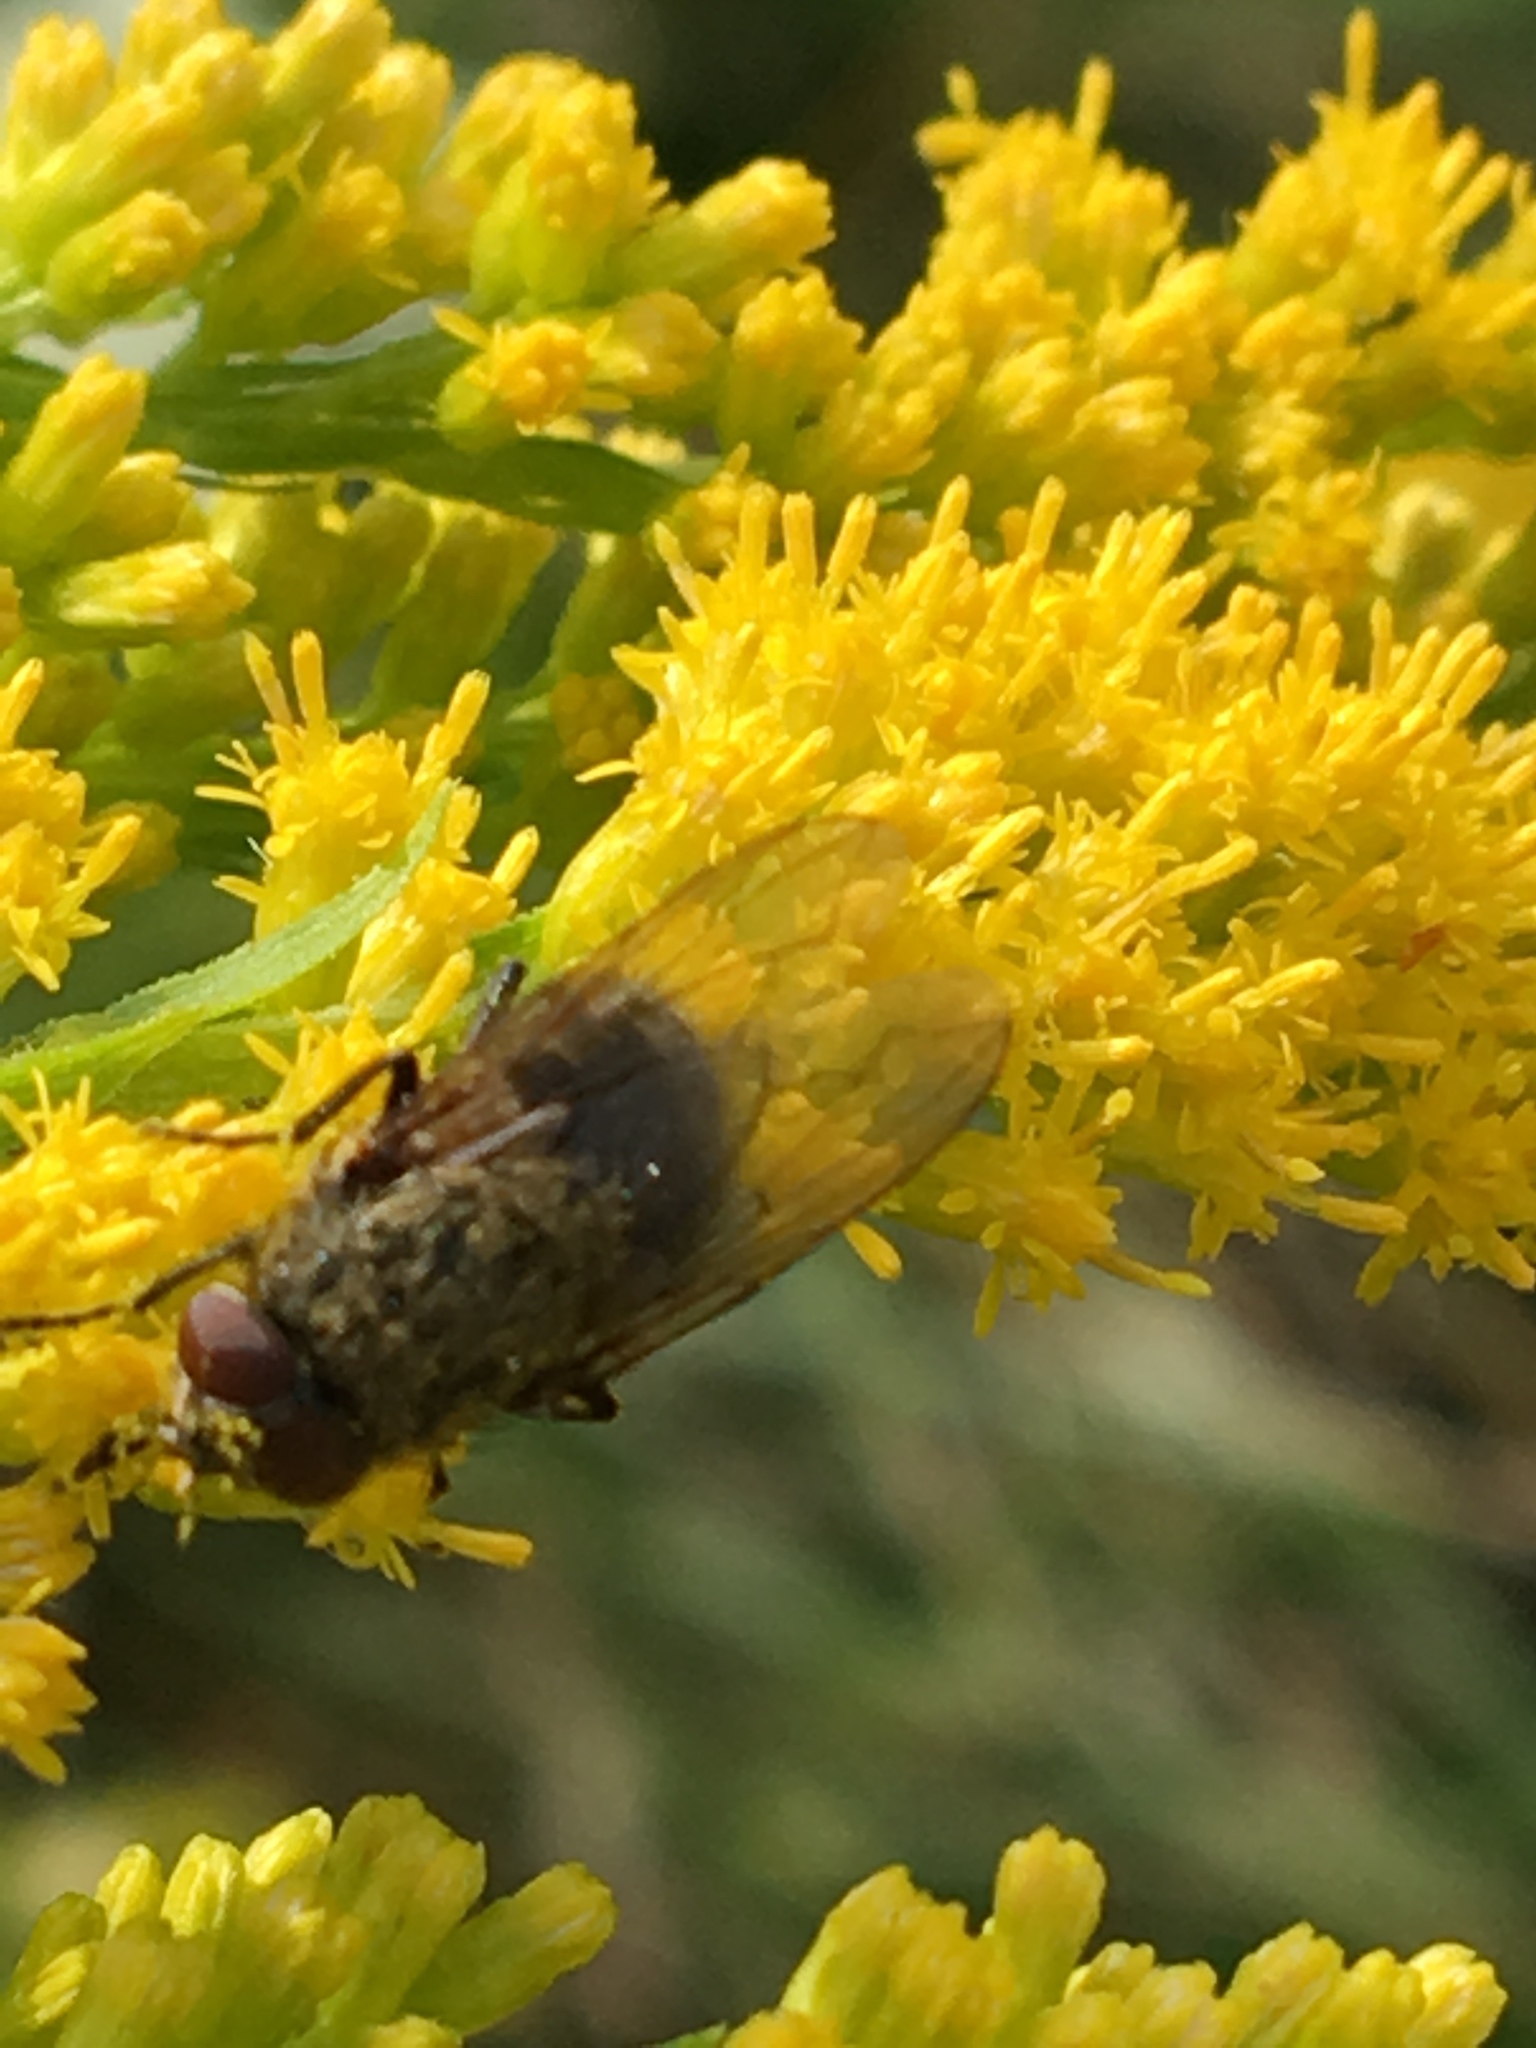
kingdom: Animalia
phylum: Arthropoda
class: Insecta
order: Diptera
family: Polleniidae
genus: Pollenia
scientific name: Pollenia
